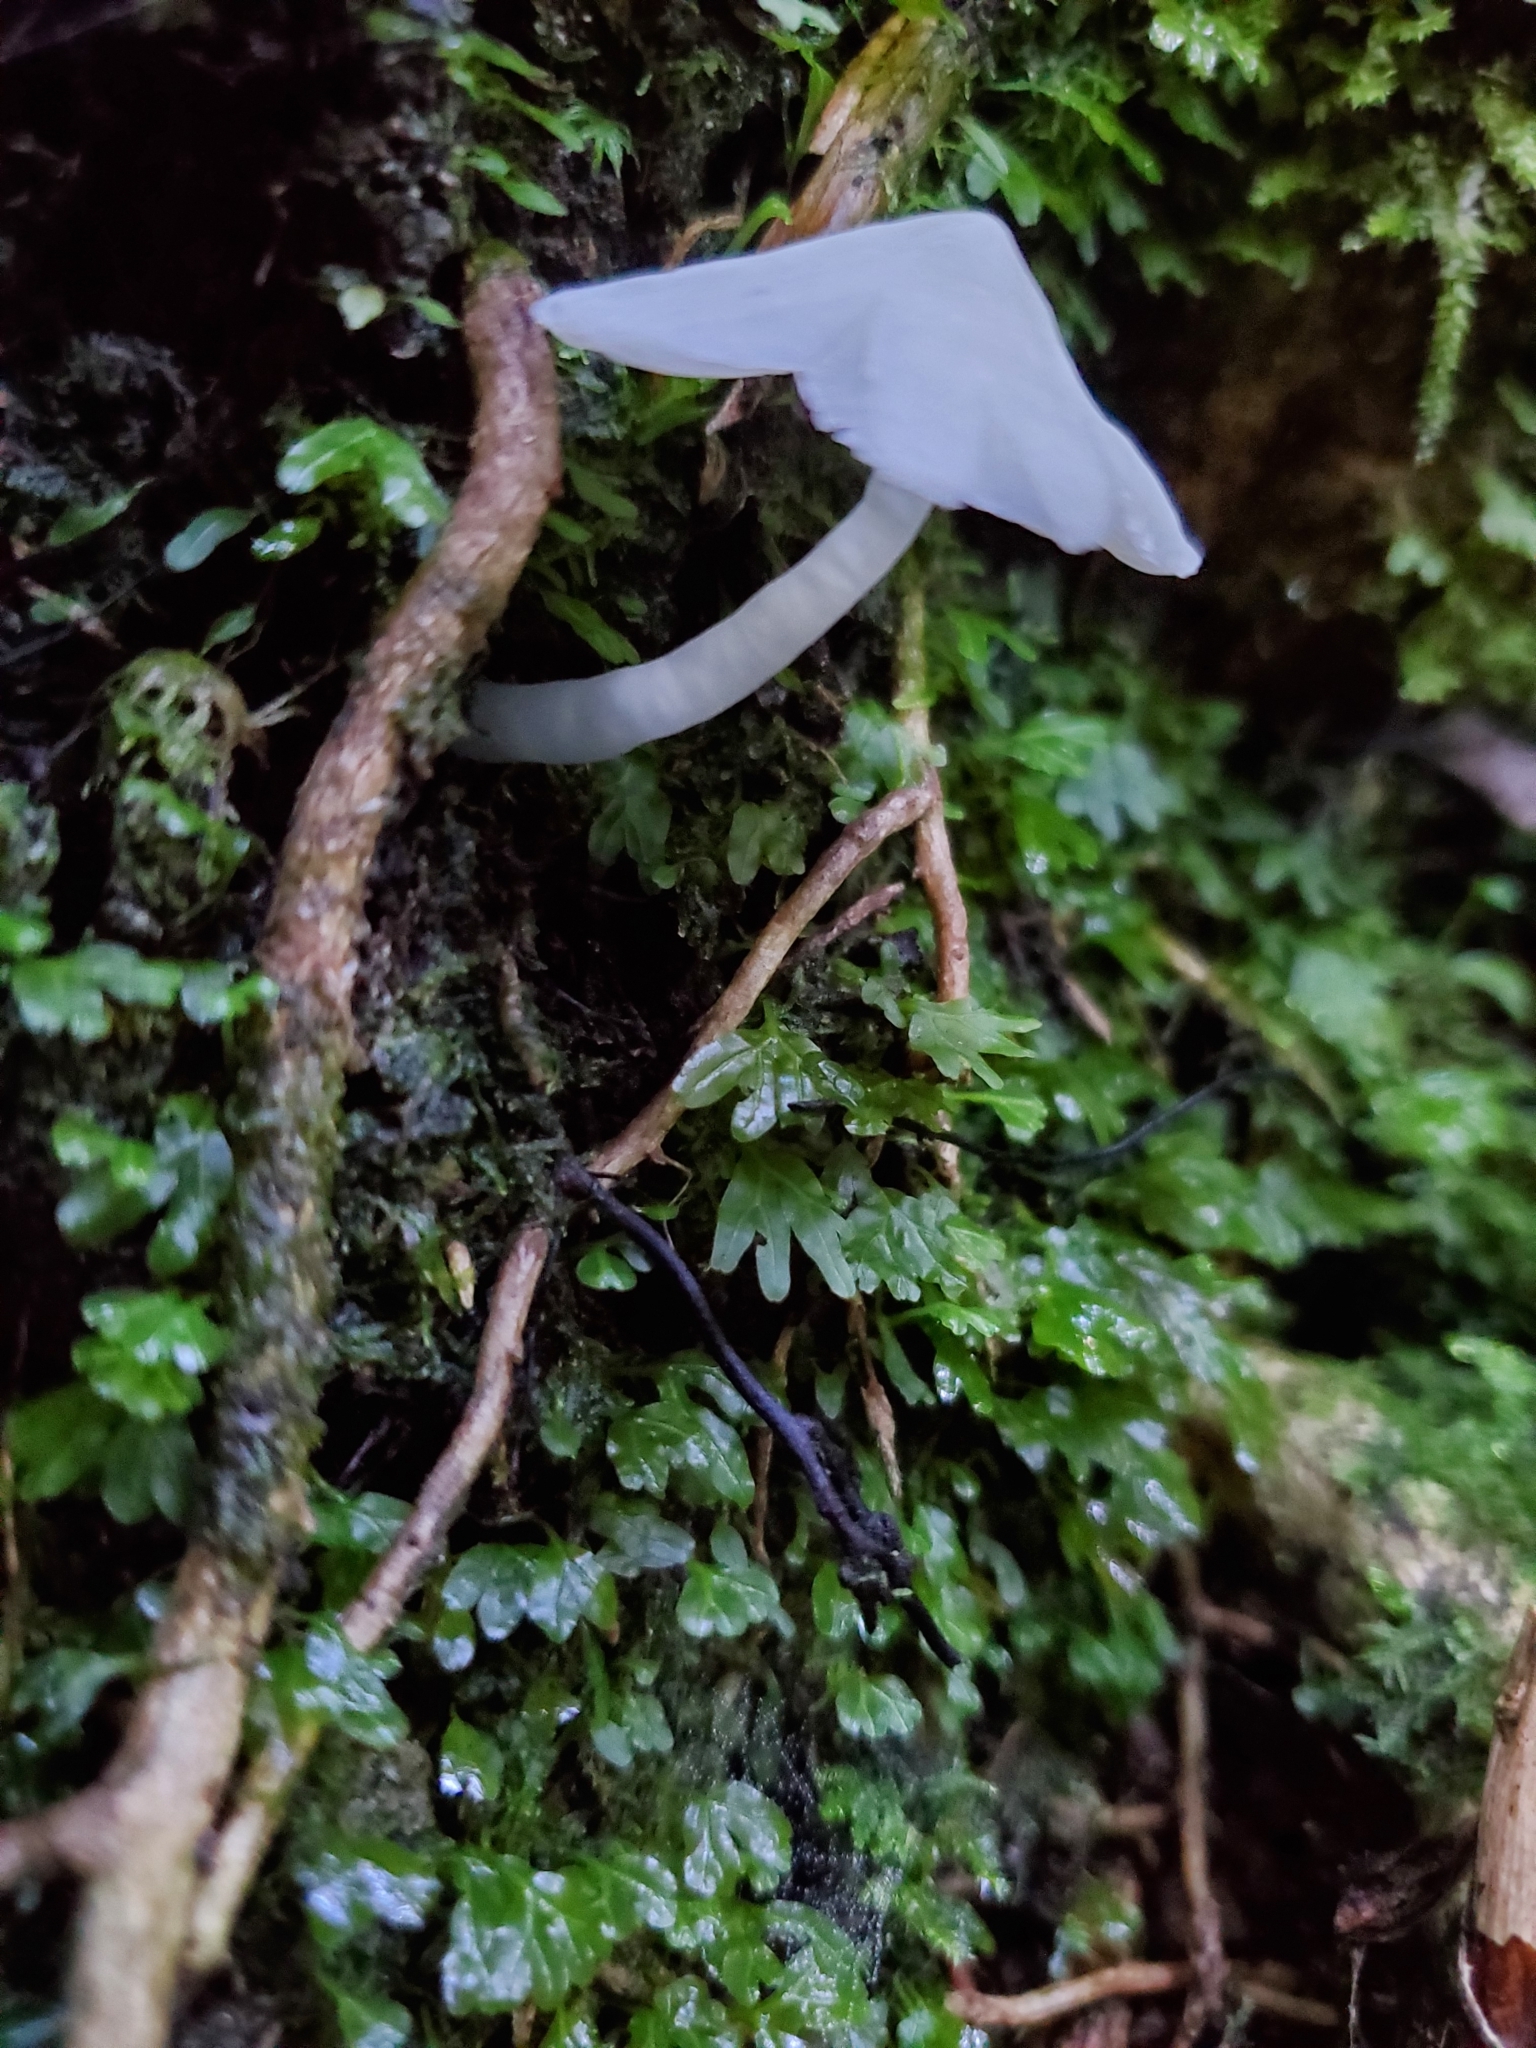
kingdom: Fungi
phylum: Basidiomycota
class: Agaricomycetes
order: Agaricales
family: Hygrophoraceae
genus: Humidicutis
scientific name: Humidicutis mavis
